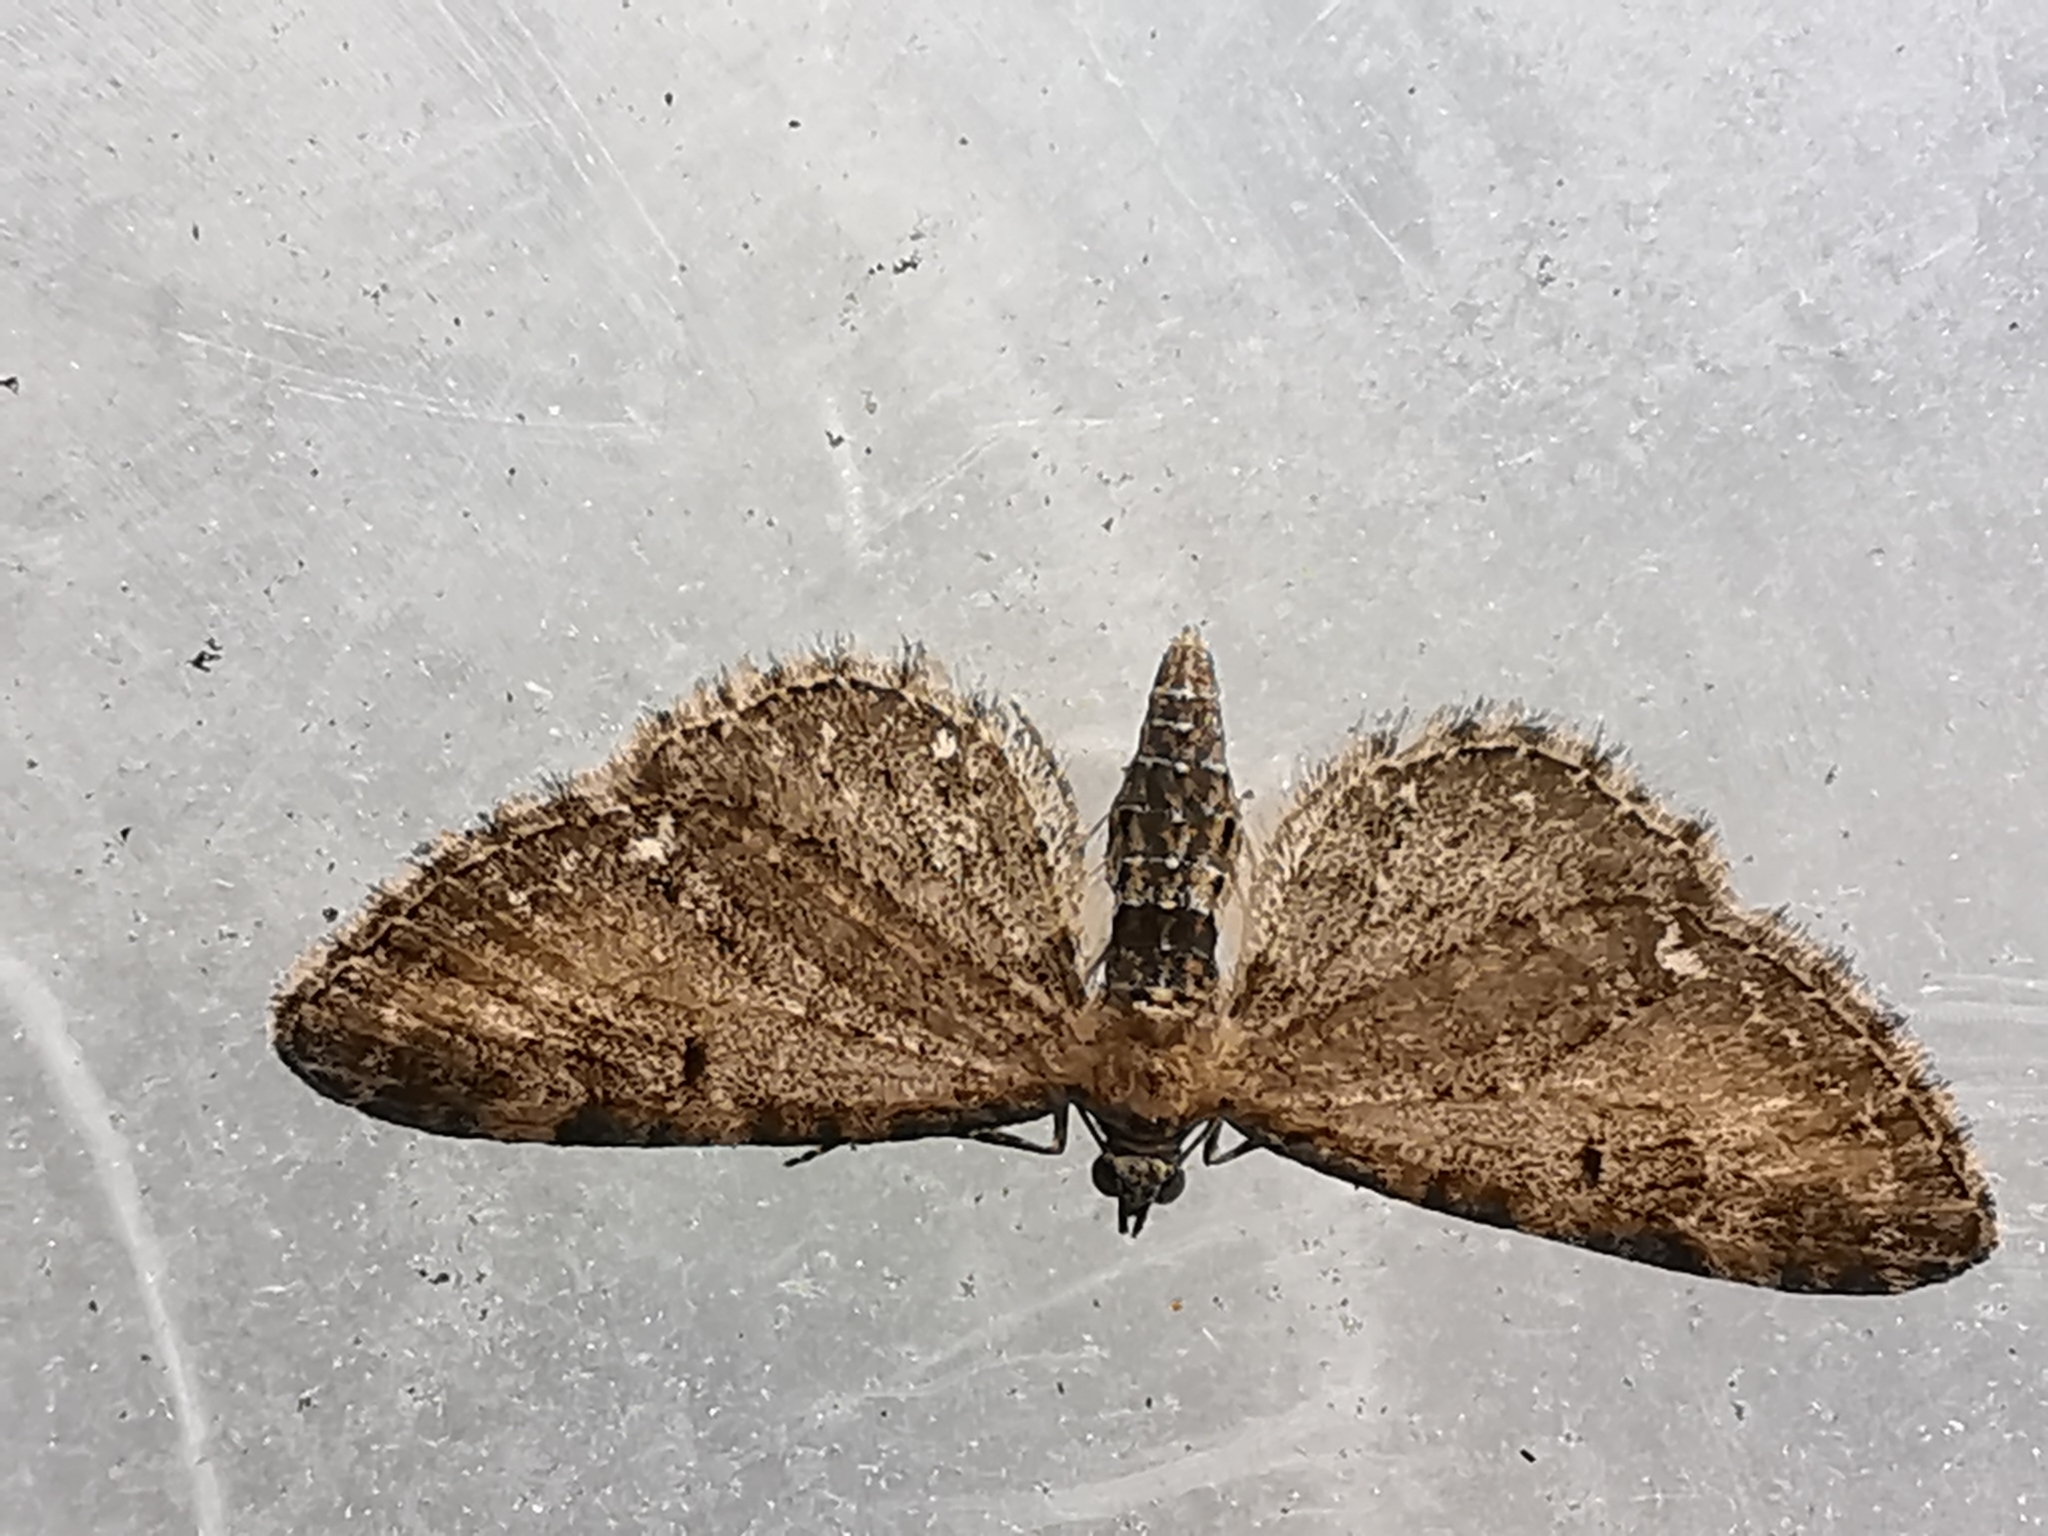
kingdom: Animalia
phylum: Arthropoda
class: Insecta
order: Lepidoptera
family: Geometridae
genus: Eupithecia
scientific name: Eupithecia vulgata
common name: Common pug
